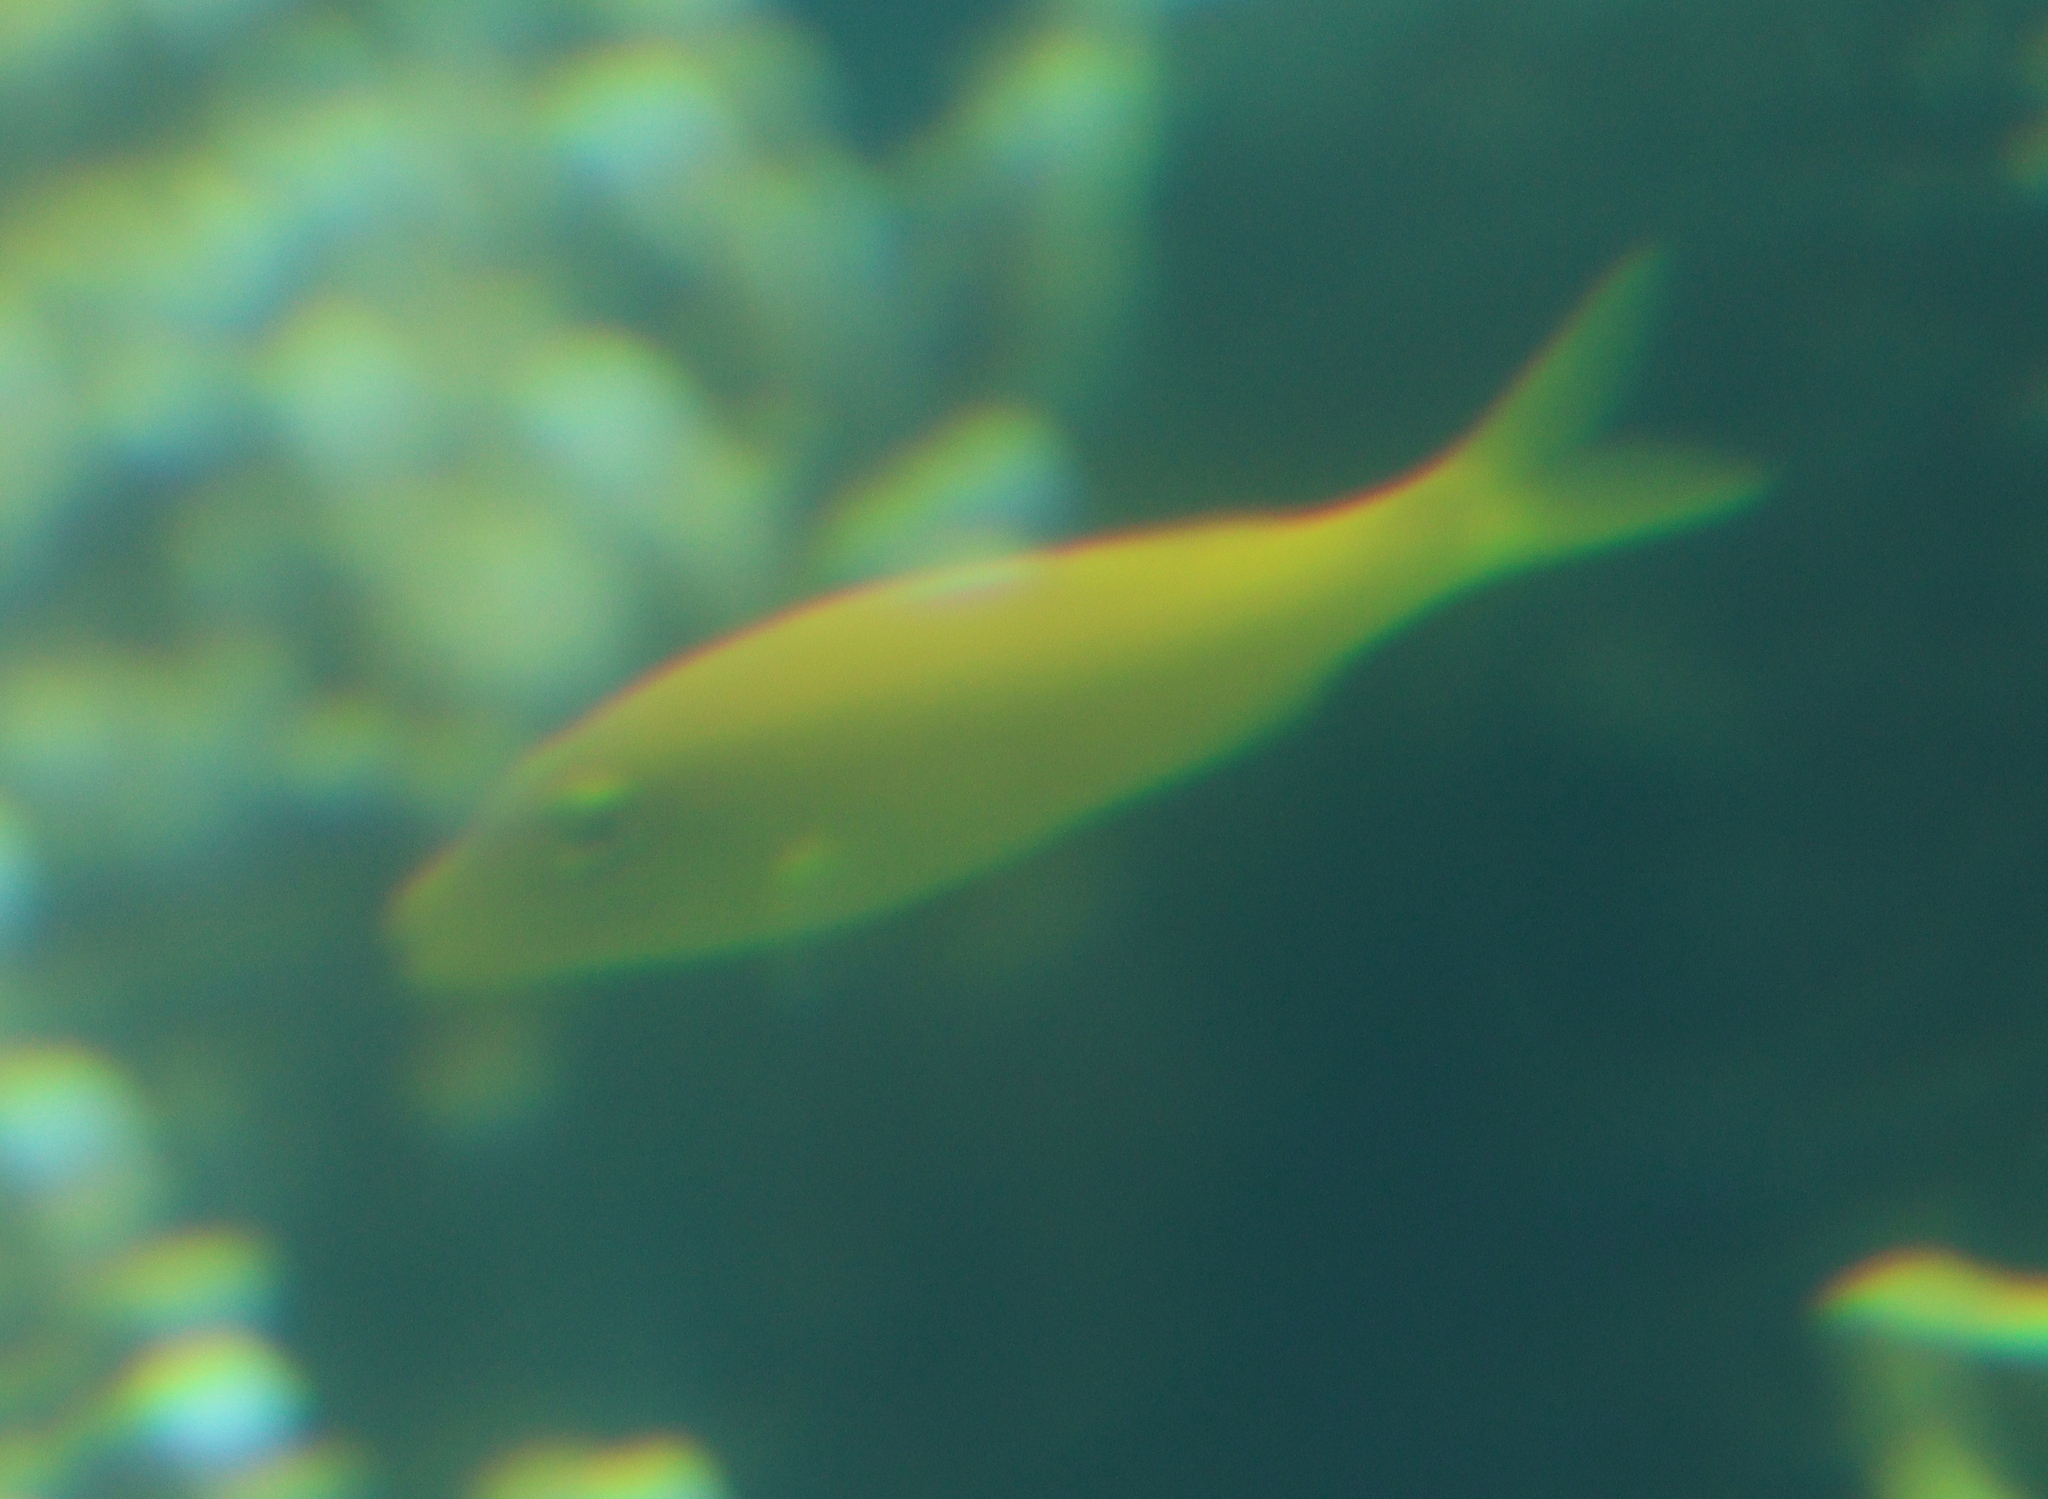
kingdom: Animalia
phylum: Chordata
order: Perciformes
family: Mullidae
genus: Parupeneus
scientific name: Parupeneus cyclostomus
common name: Goldsaddle goatfish
